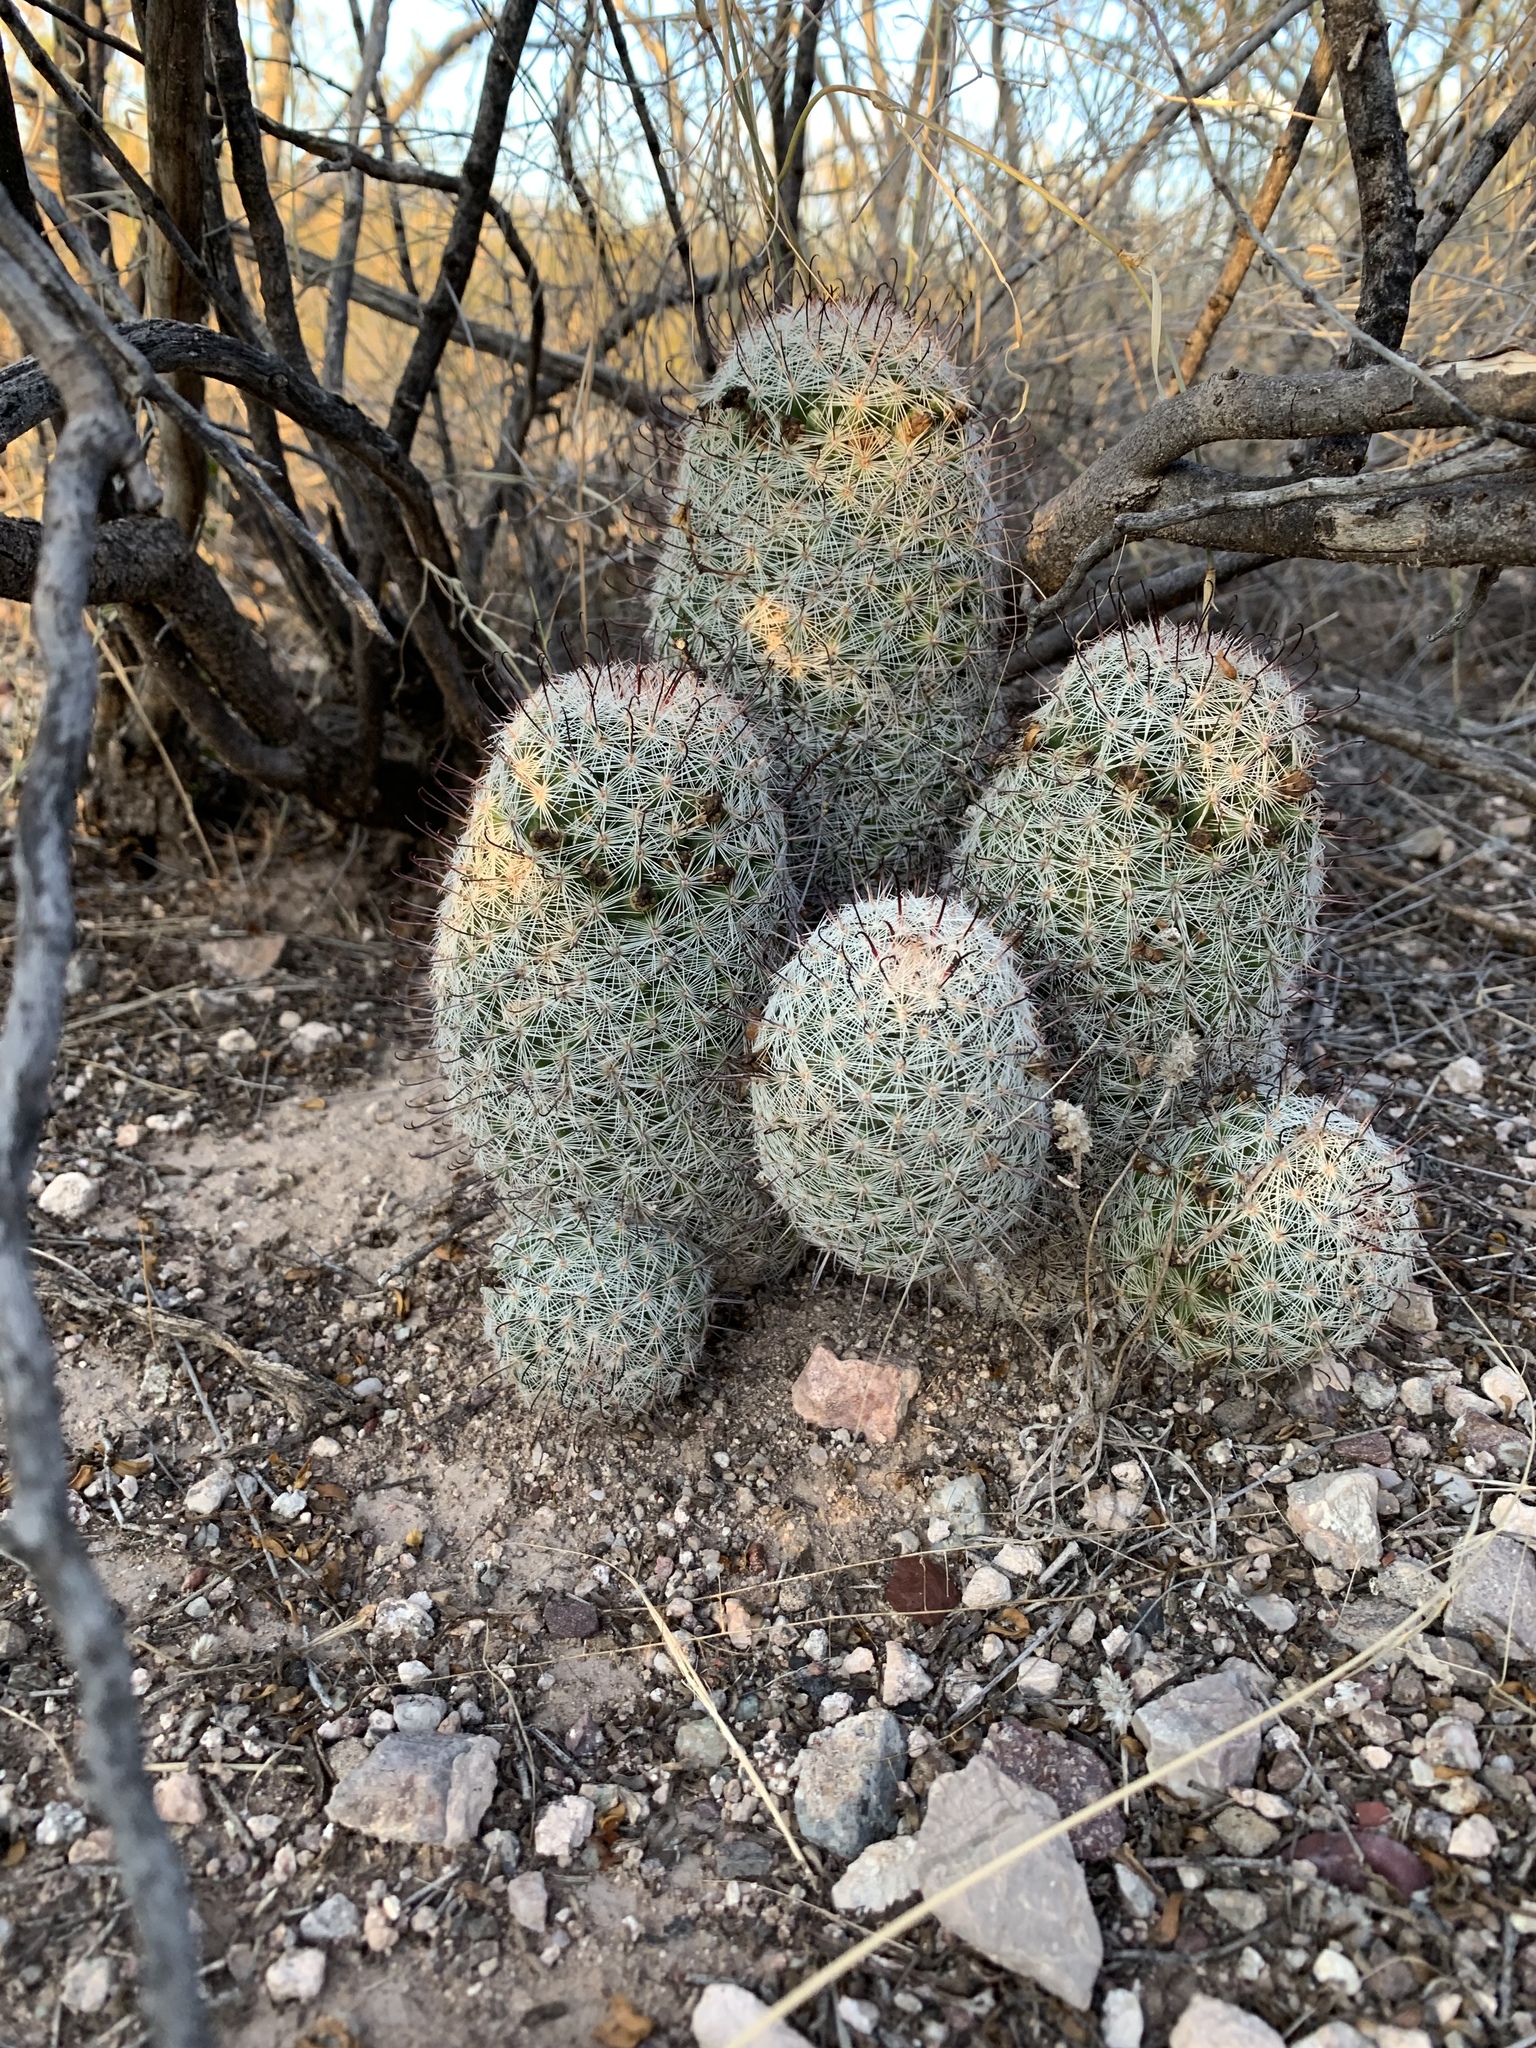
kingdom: Plantae
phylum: Tracheophyta
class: Magnoliopsida
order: Caryophyllales
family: Cactaceae
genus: Cochemiea
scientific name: Cochemiea grahamii
